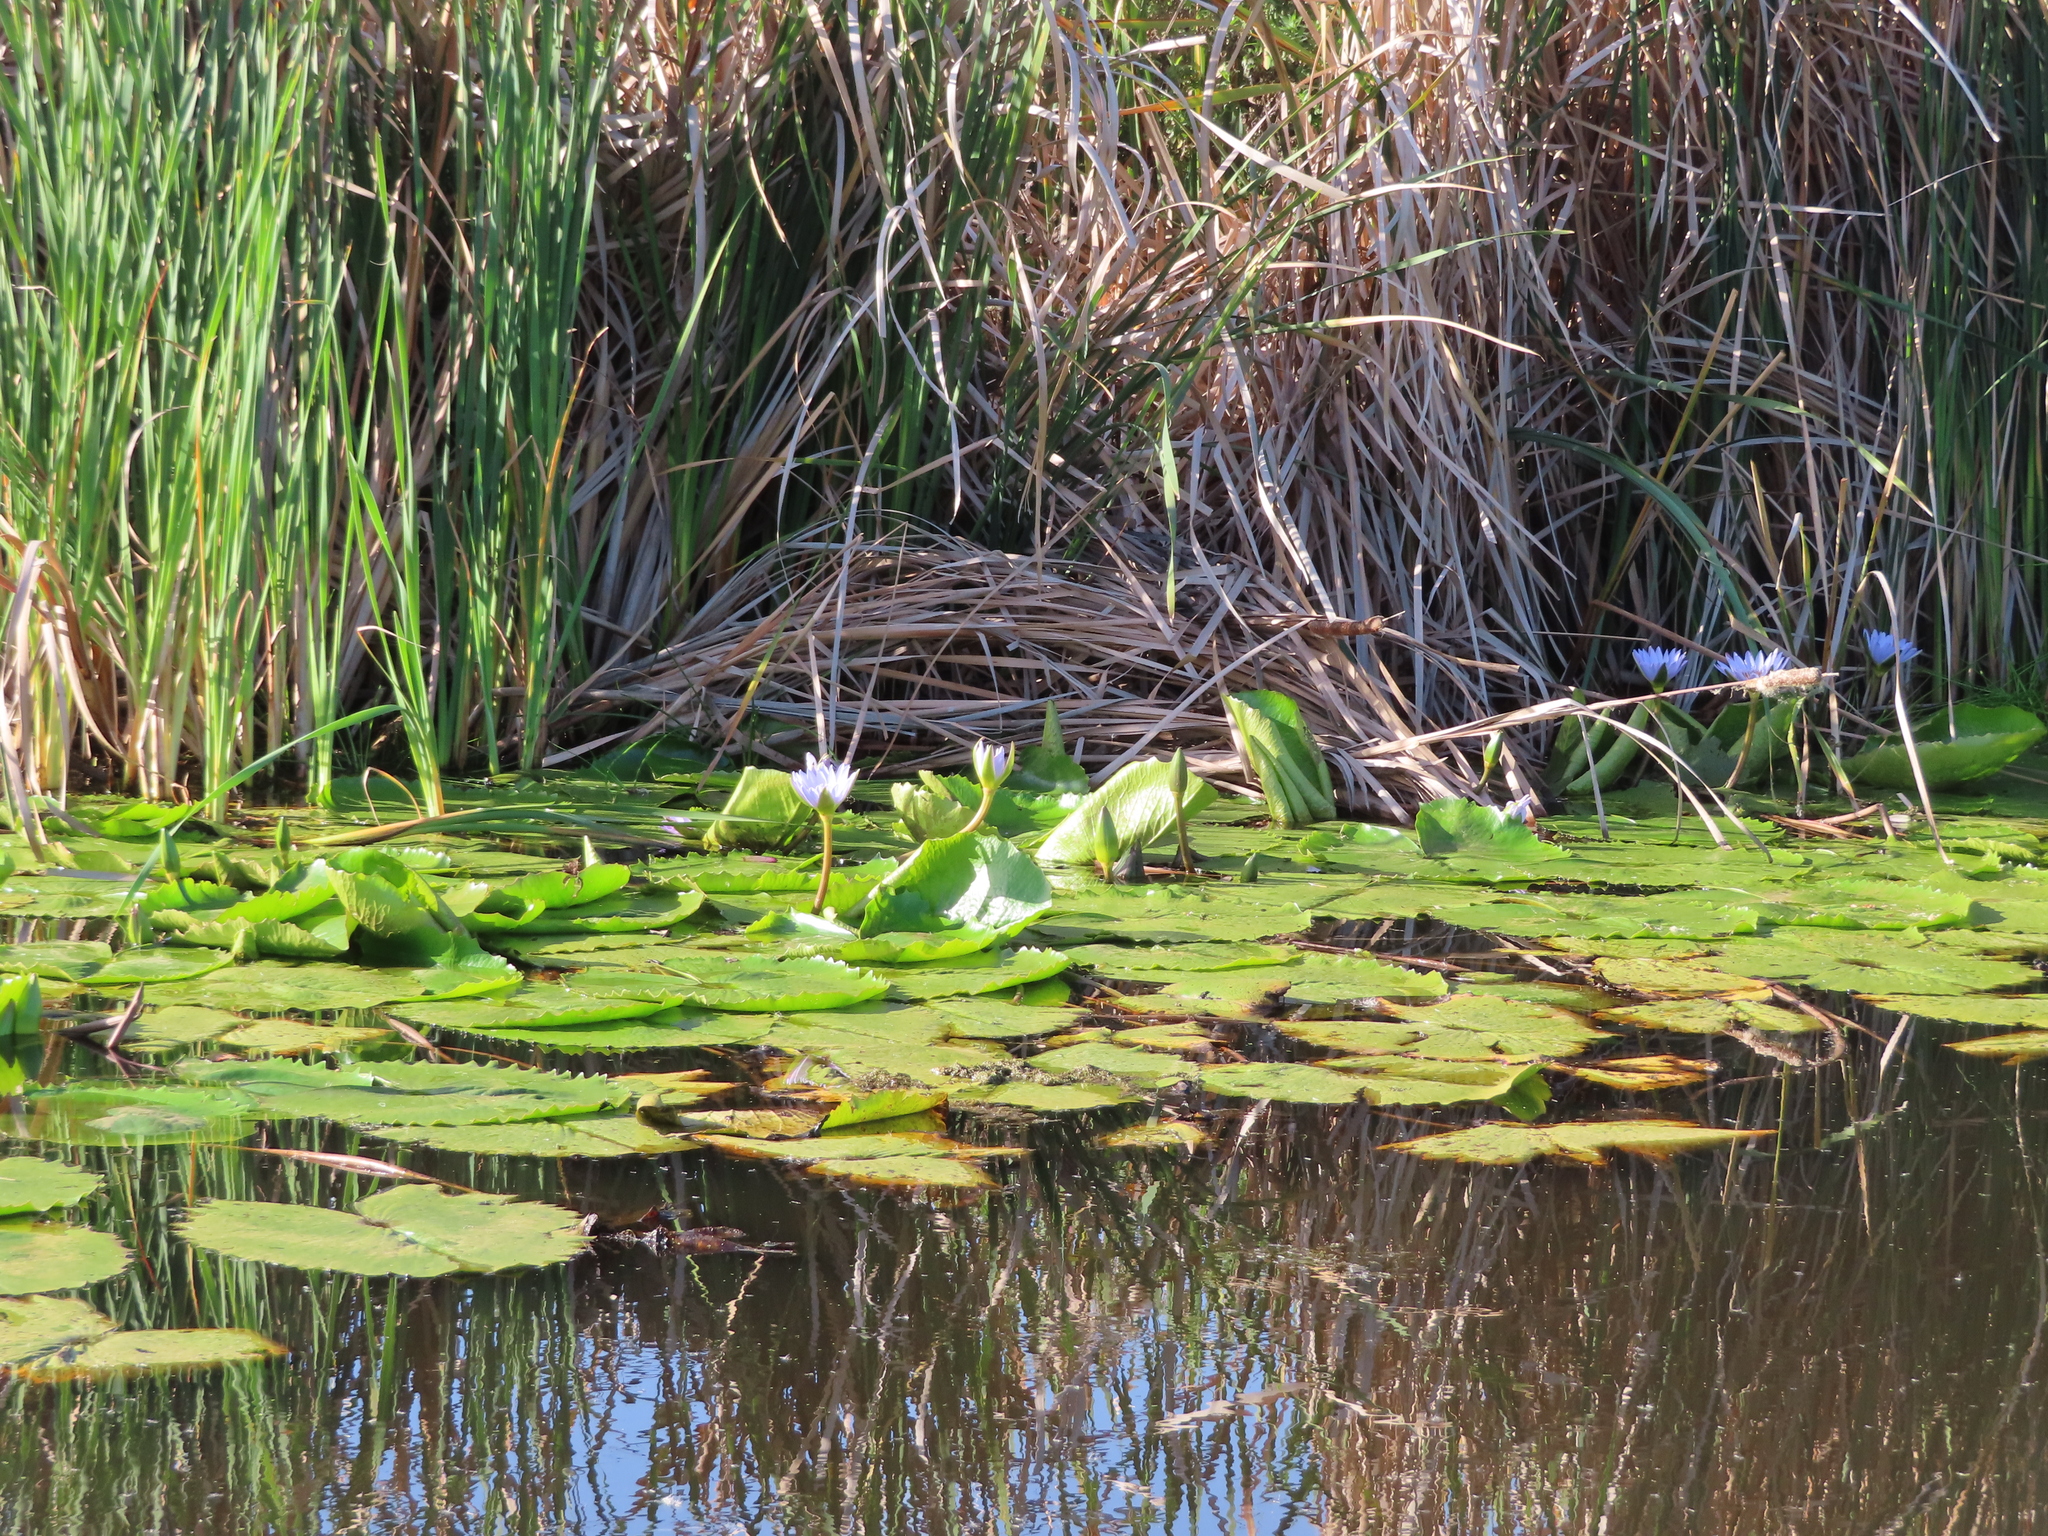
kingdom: Plantae
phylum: Tracheophyta
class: Magnoliopsida
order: Nymphaeales
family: Nymphaeaceae
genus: Nymphaea
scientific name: Nymphaea nouchali
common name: Blue lotus
